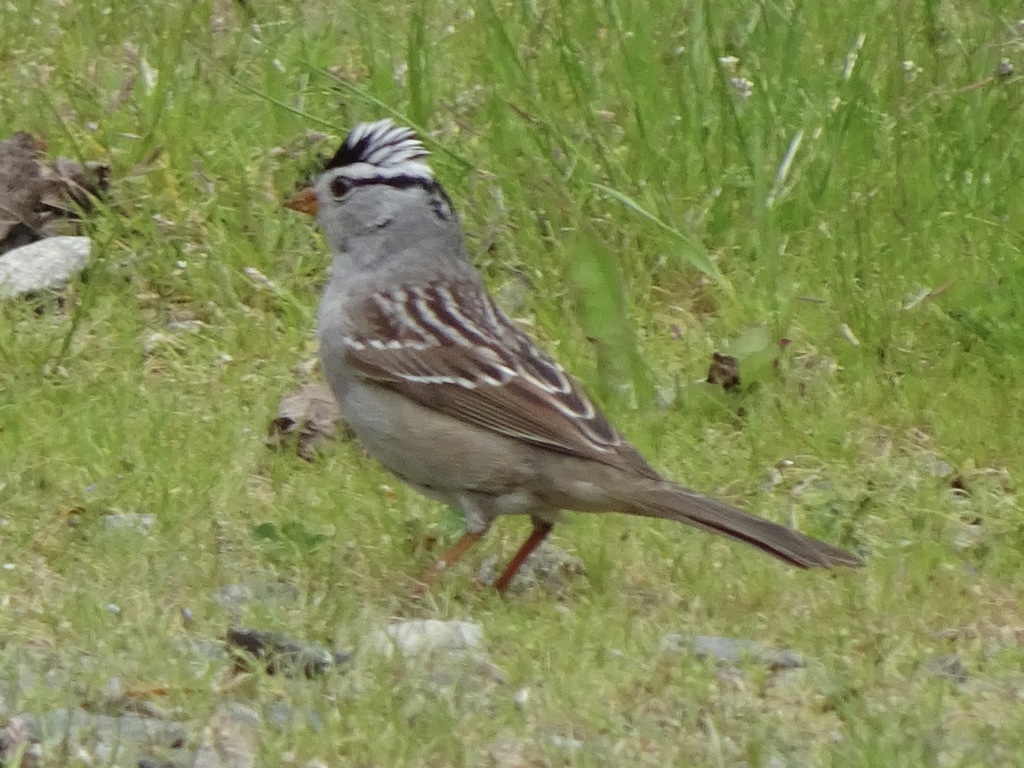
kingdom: Animalia
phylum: Chordata
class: Aves
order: Passeriformes
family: Passerellidae
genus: Zonotrichia
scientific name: Zonotrichia leucophrys
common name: White-crowned sparrow
